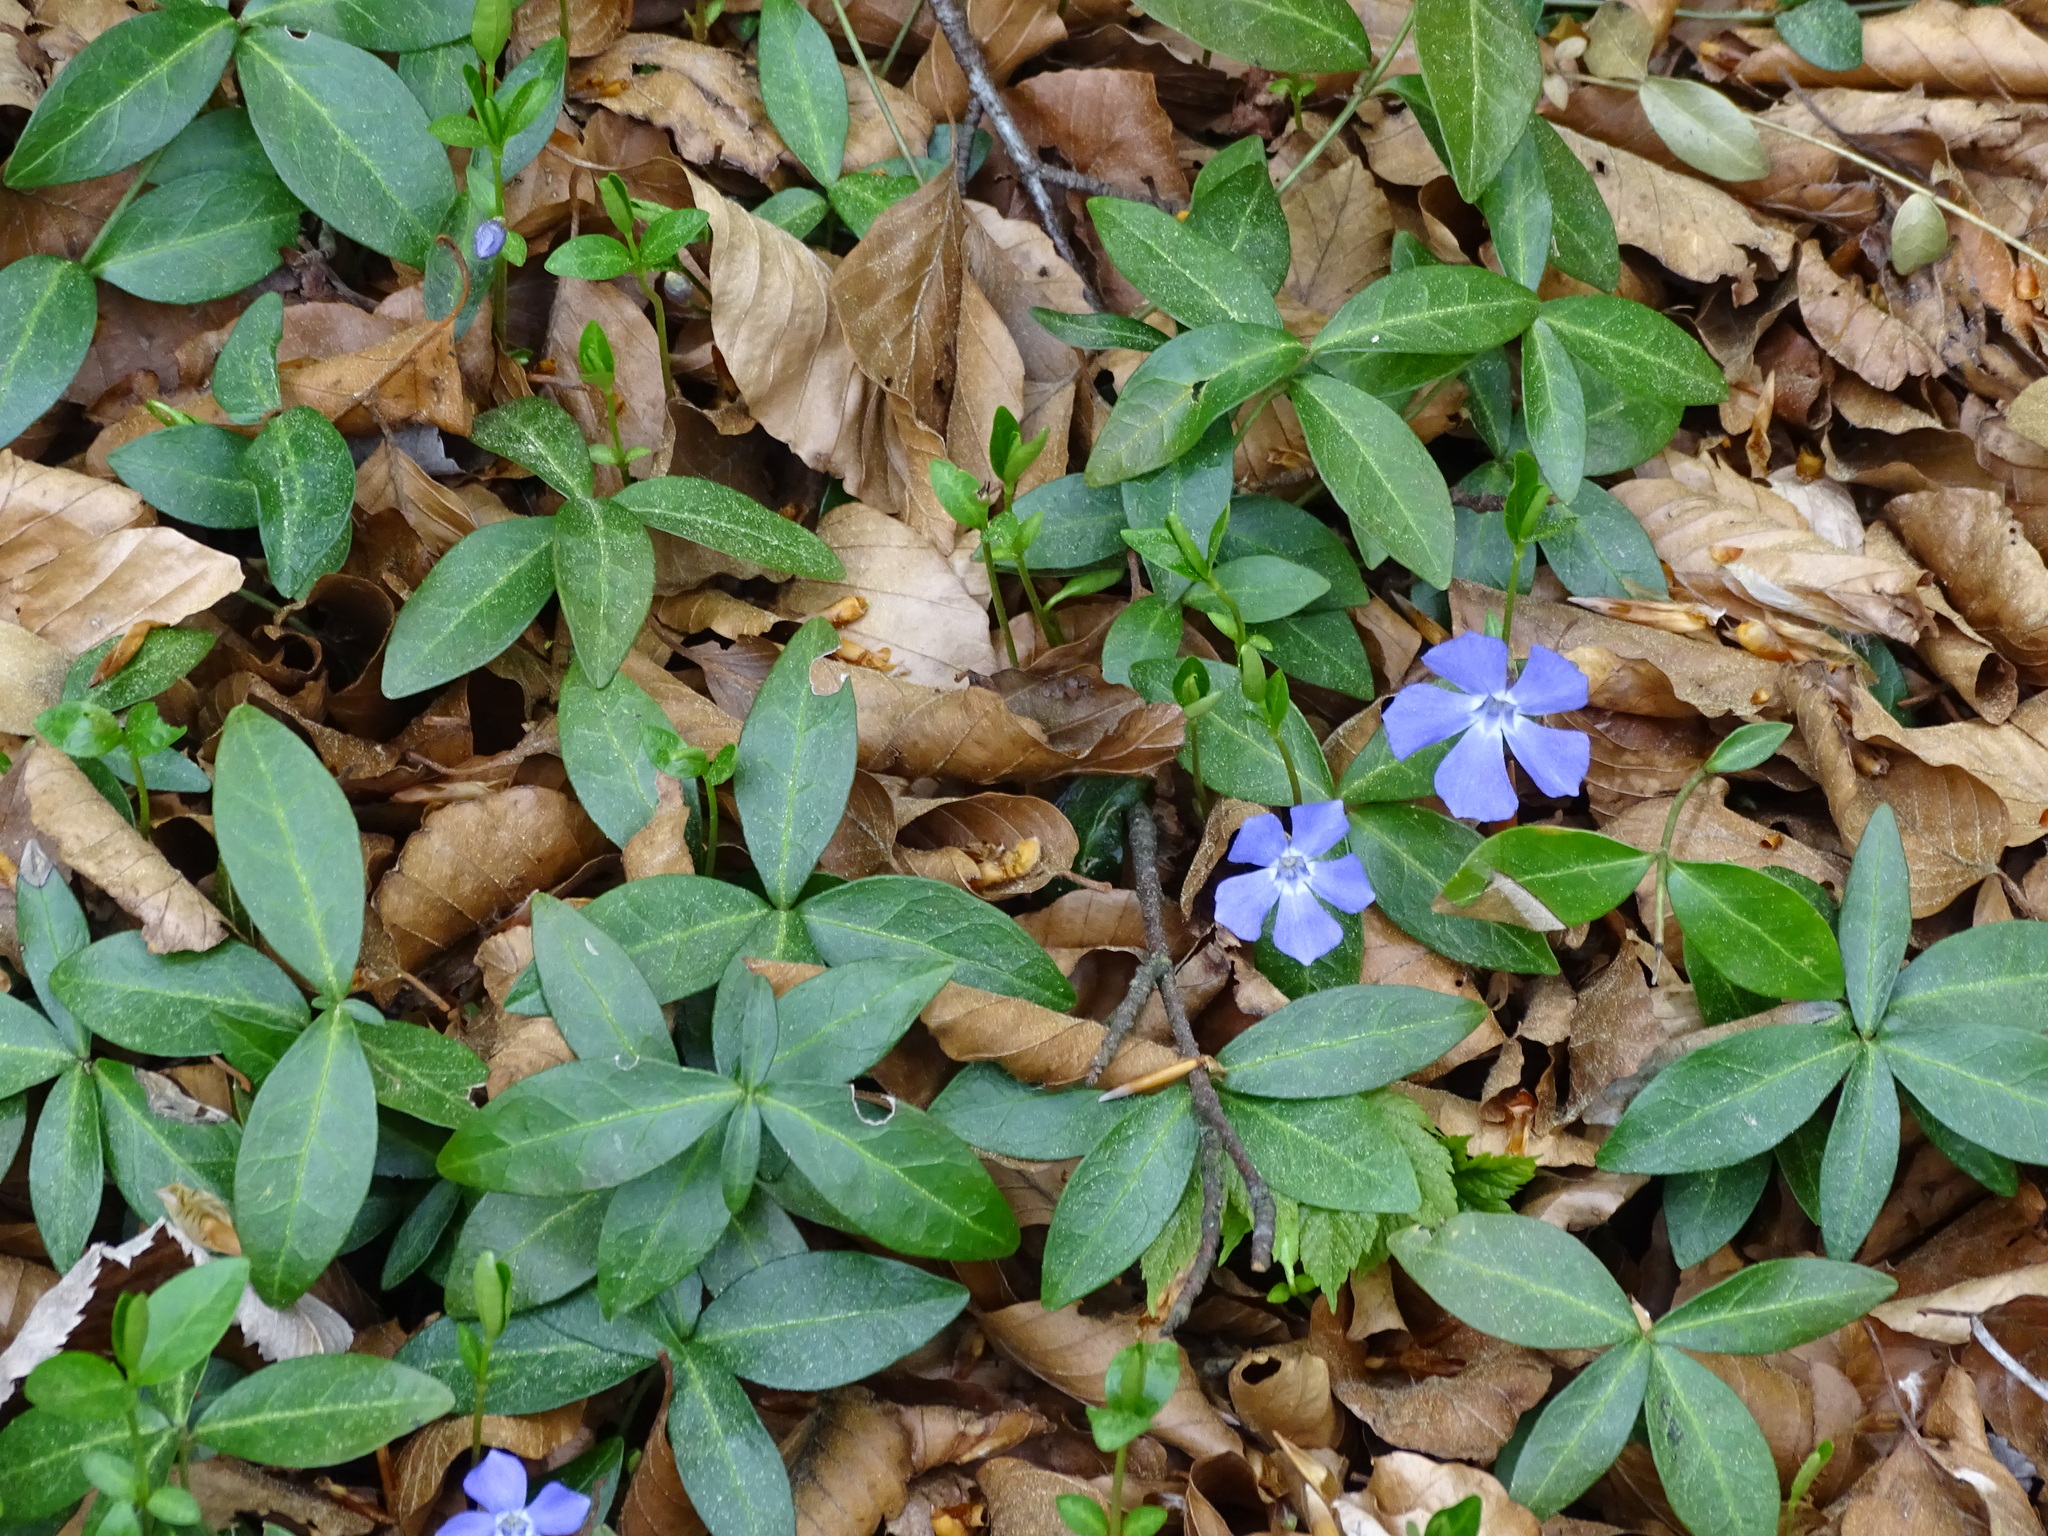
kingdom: Plantae
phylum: Tracheophyta
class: Magnoliopsida
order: Gentianales
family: Apocynaceae
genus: Vinca
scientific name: Vinca minor
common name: Lesser periwinkle
